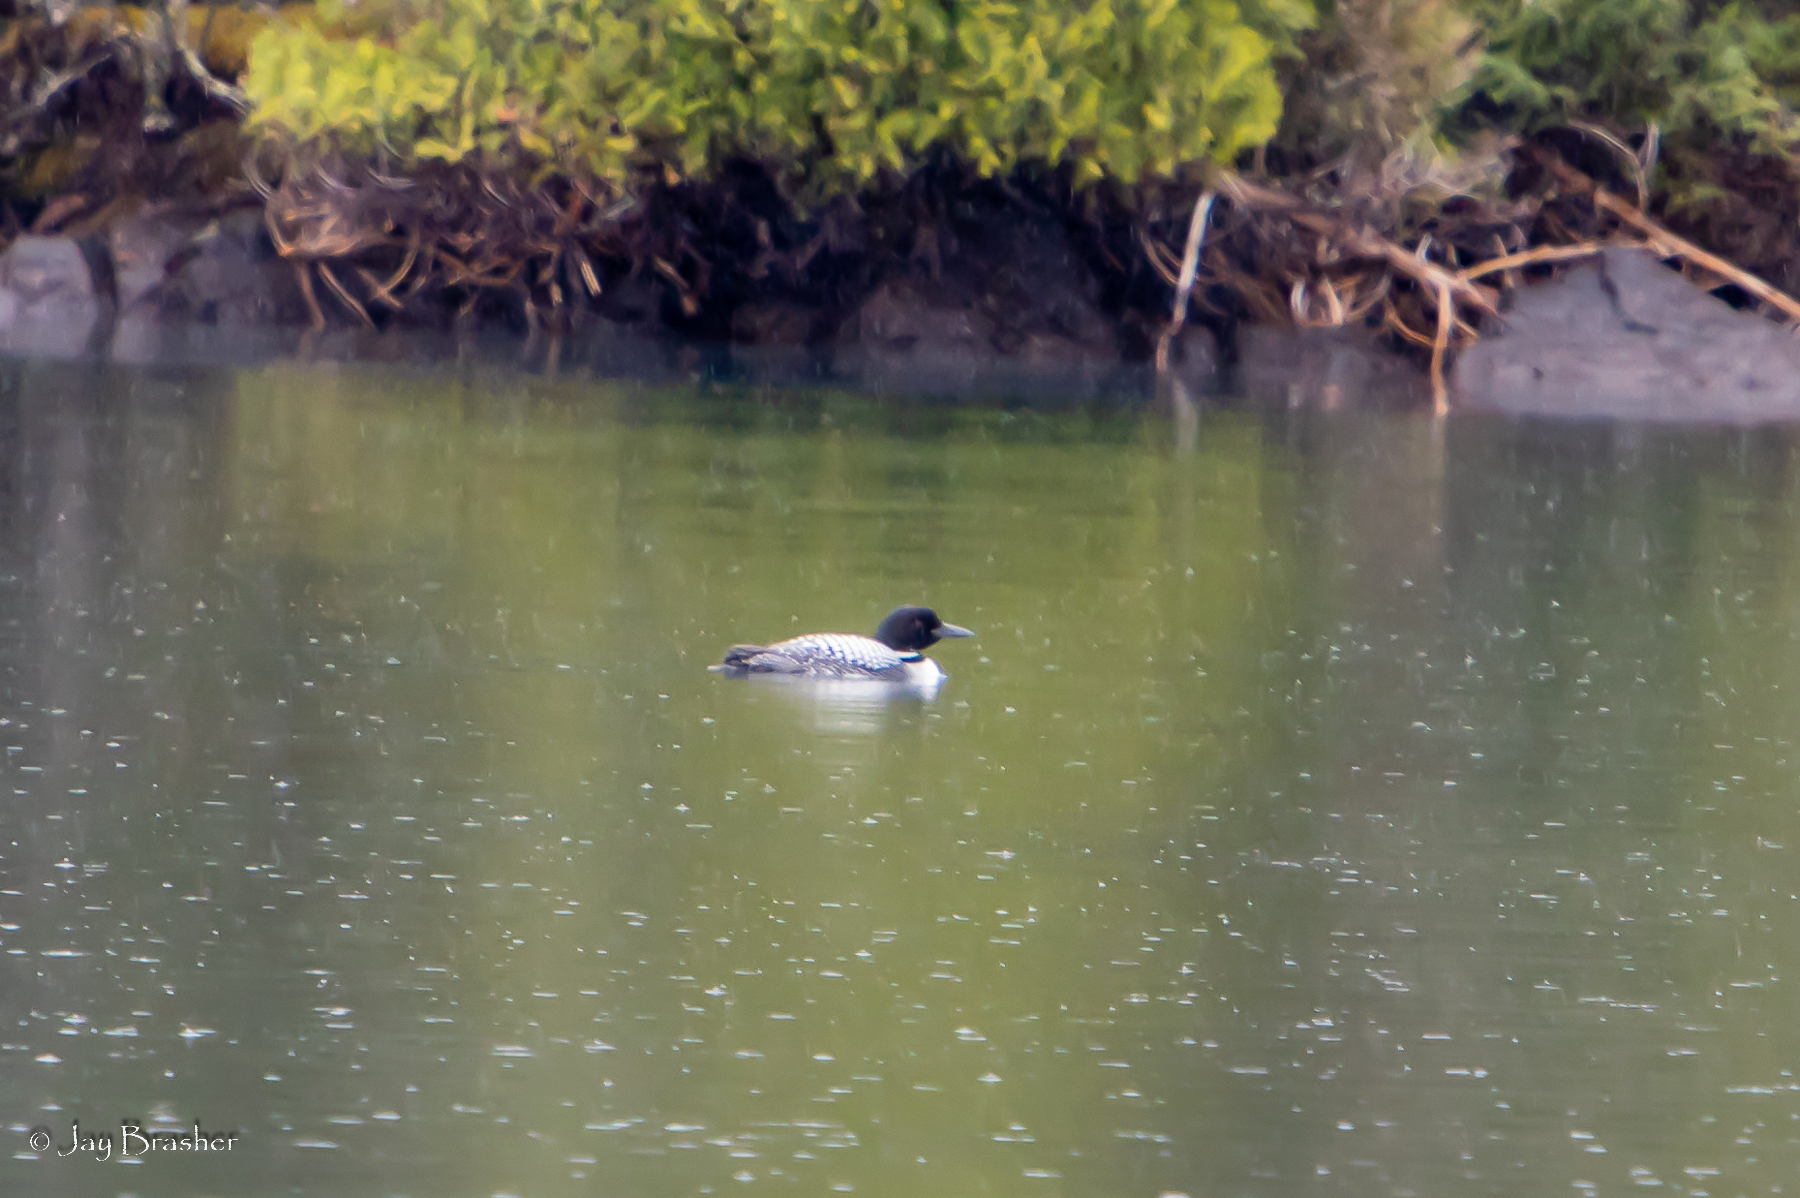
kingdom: Animalia
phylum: Chordata
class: Aves
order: Gaviiformes
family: Gaviidae
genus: Gavia
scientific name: Gavia immer
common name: Common loon
